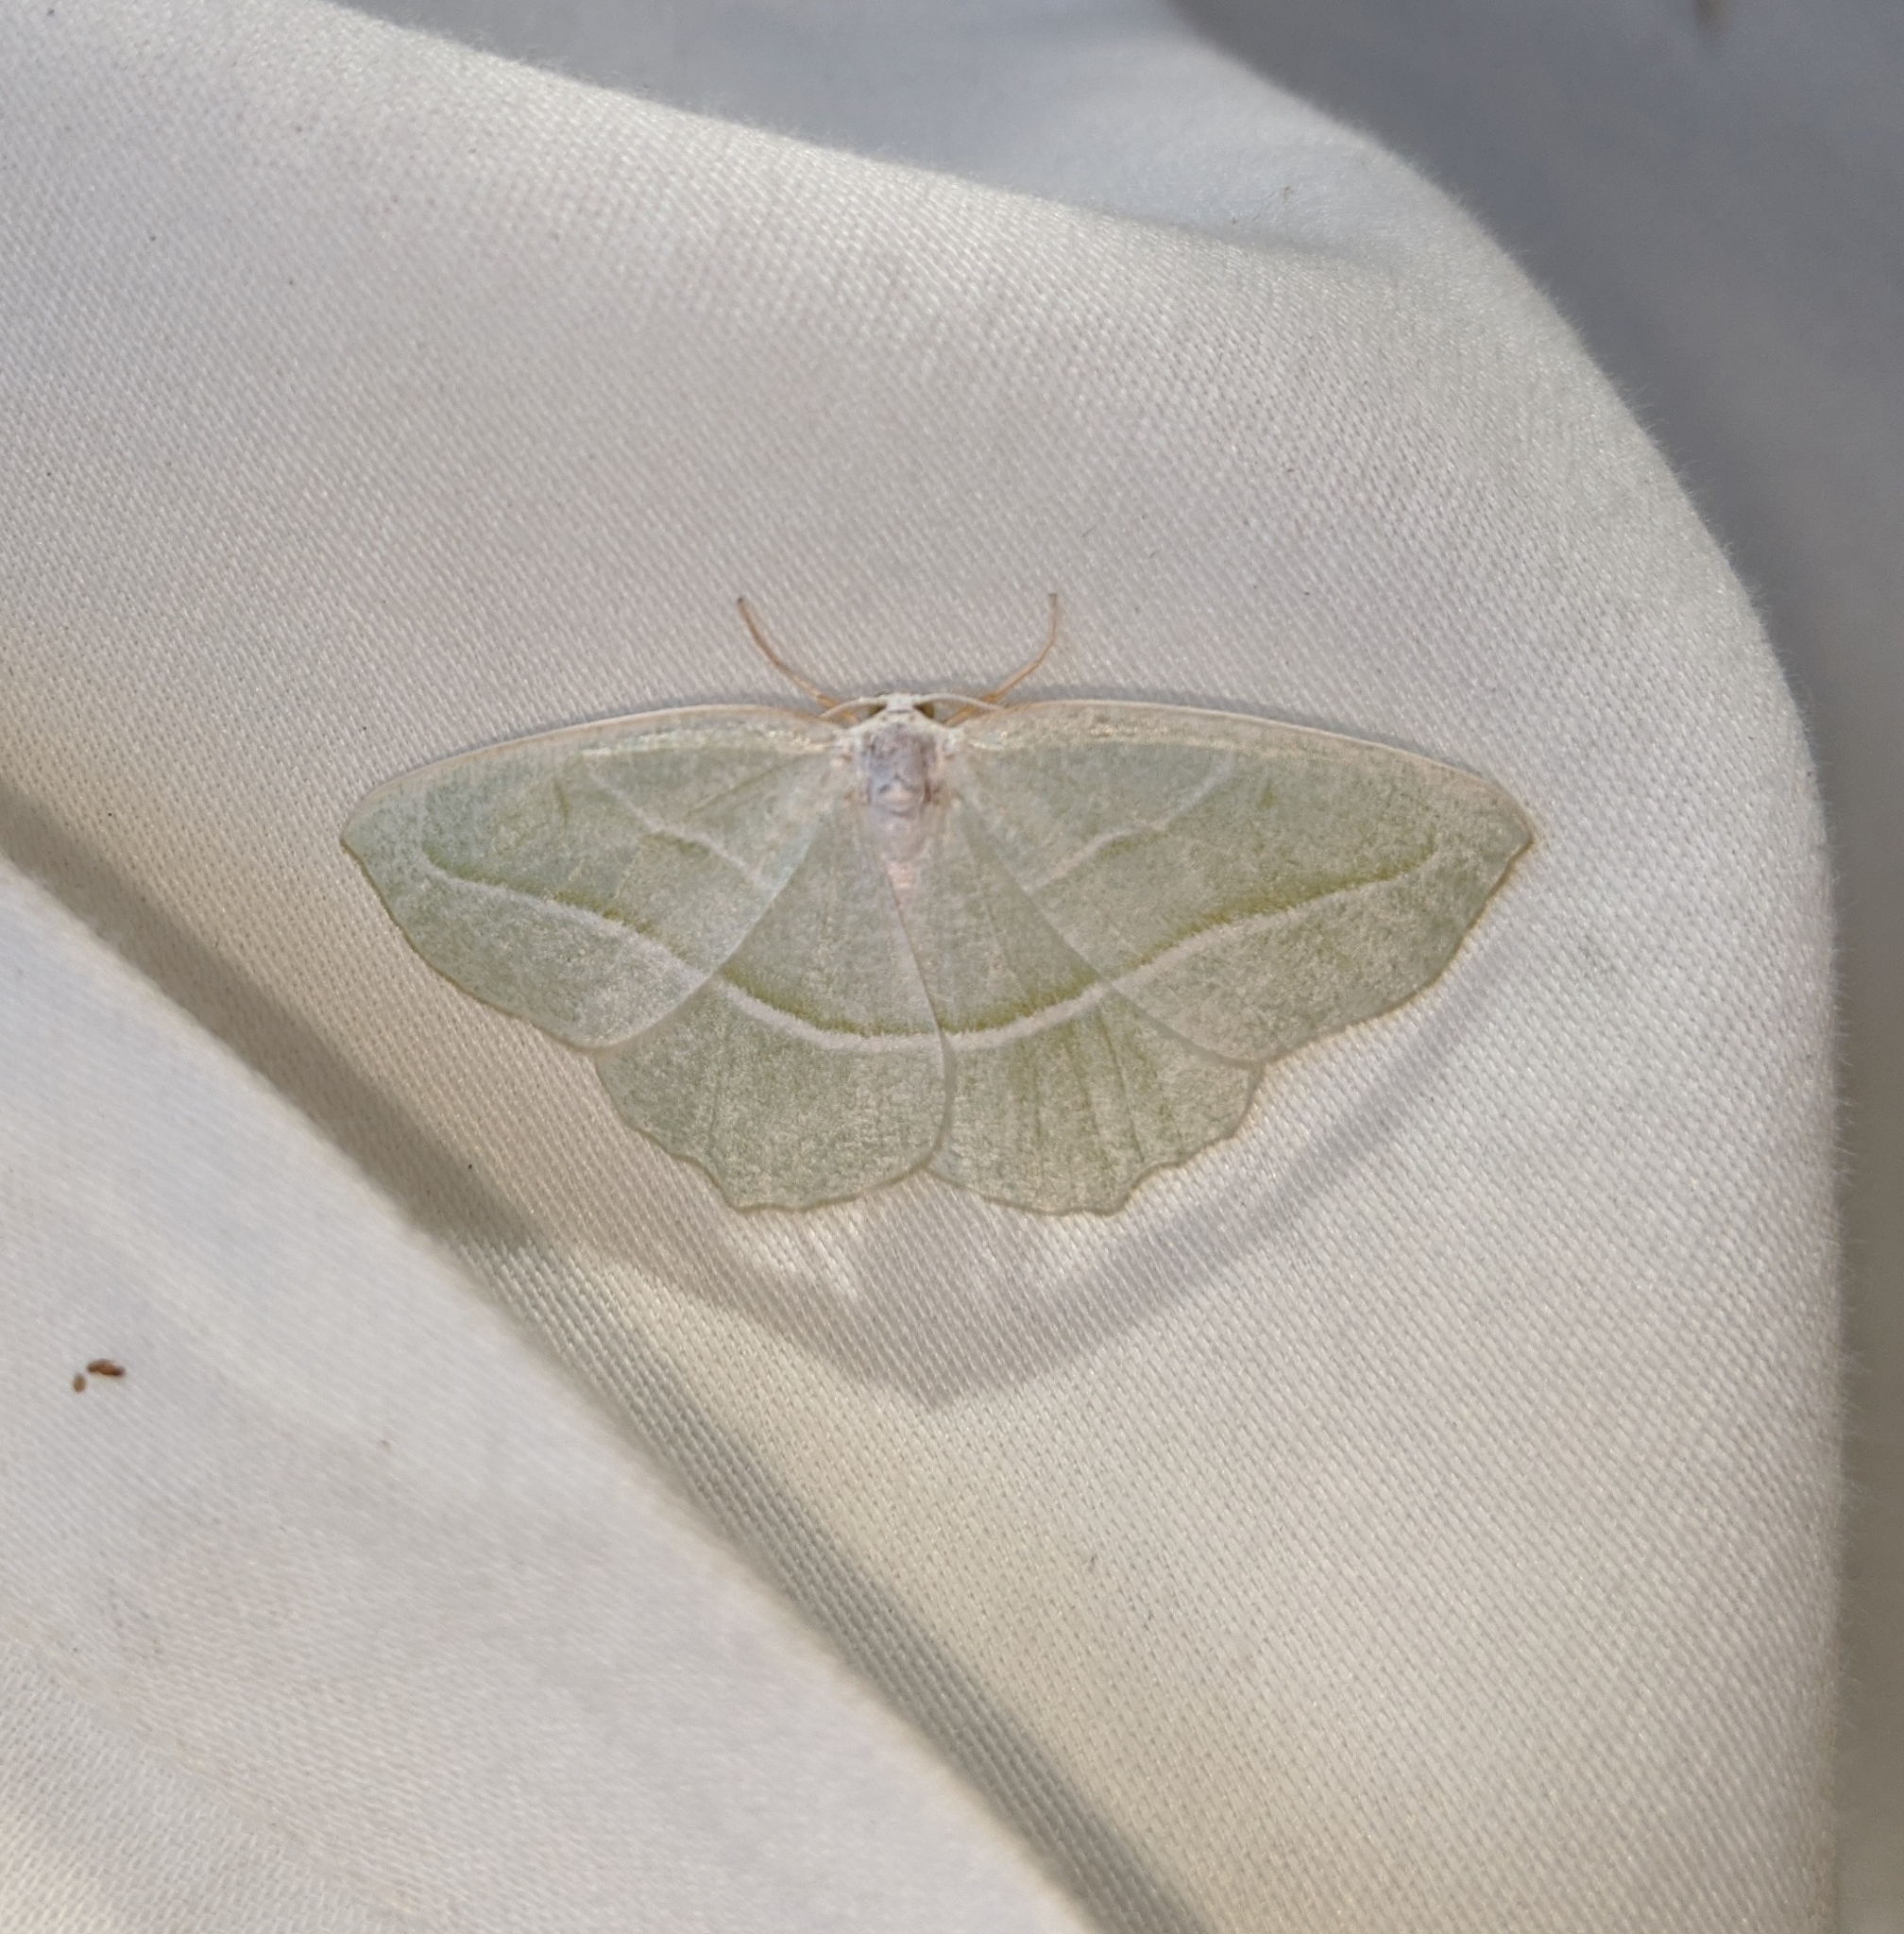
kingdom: Animalia
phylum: Arthropoda
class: Insecta
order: Lepidoptera
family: Geometridae
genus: Campaea
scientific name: Campaea perlata
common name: Fringed looper
